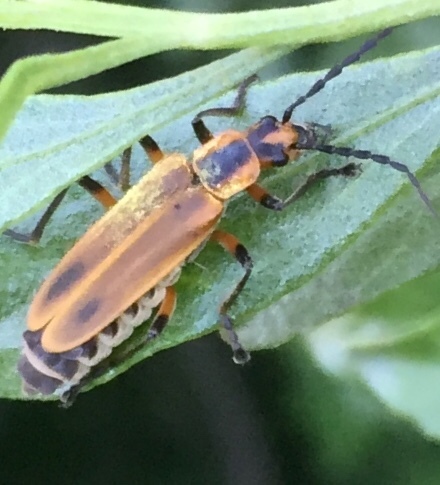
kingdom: Animalia
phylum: Arthropoda
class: Insecta
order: Coleoptera
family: Cantharidae
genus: Chauliognathus
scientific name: Chauliognathus marginatus
